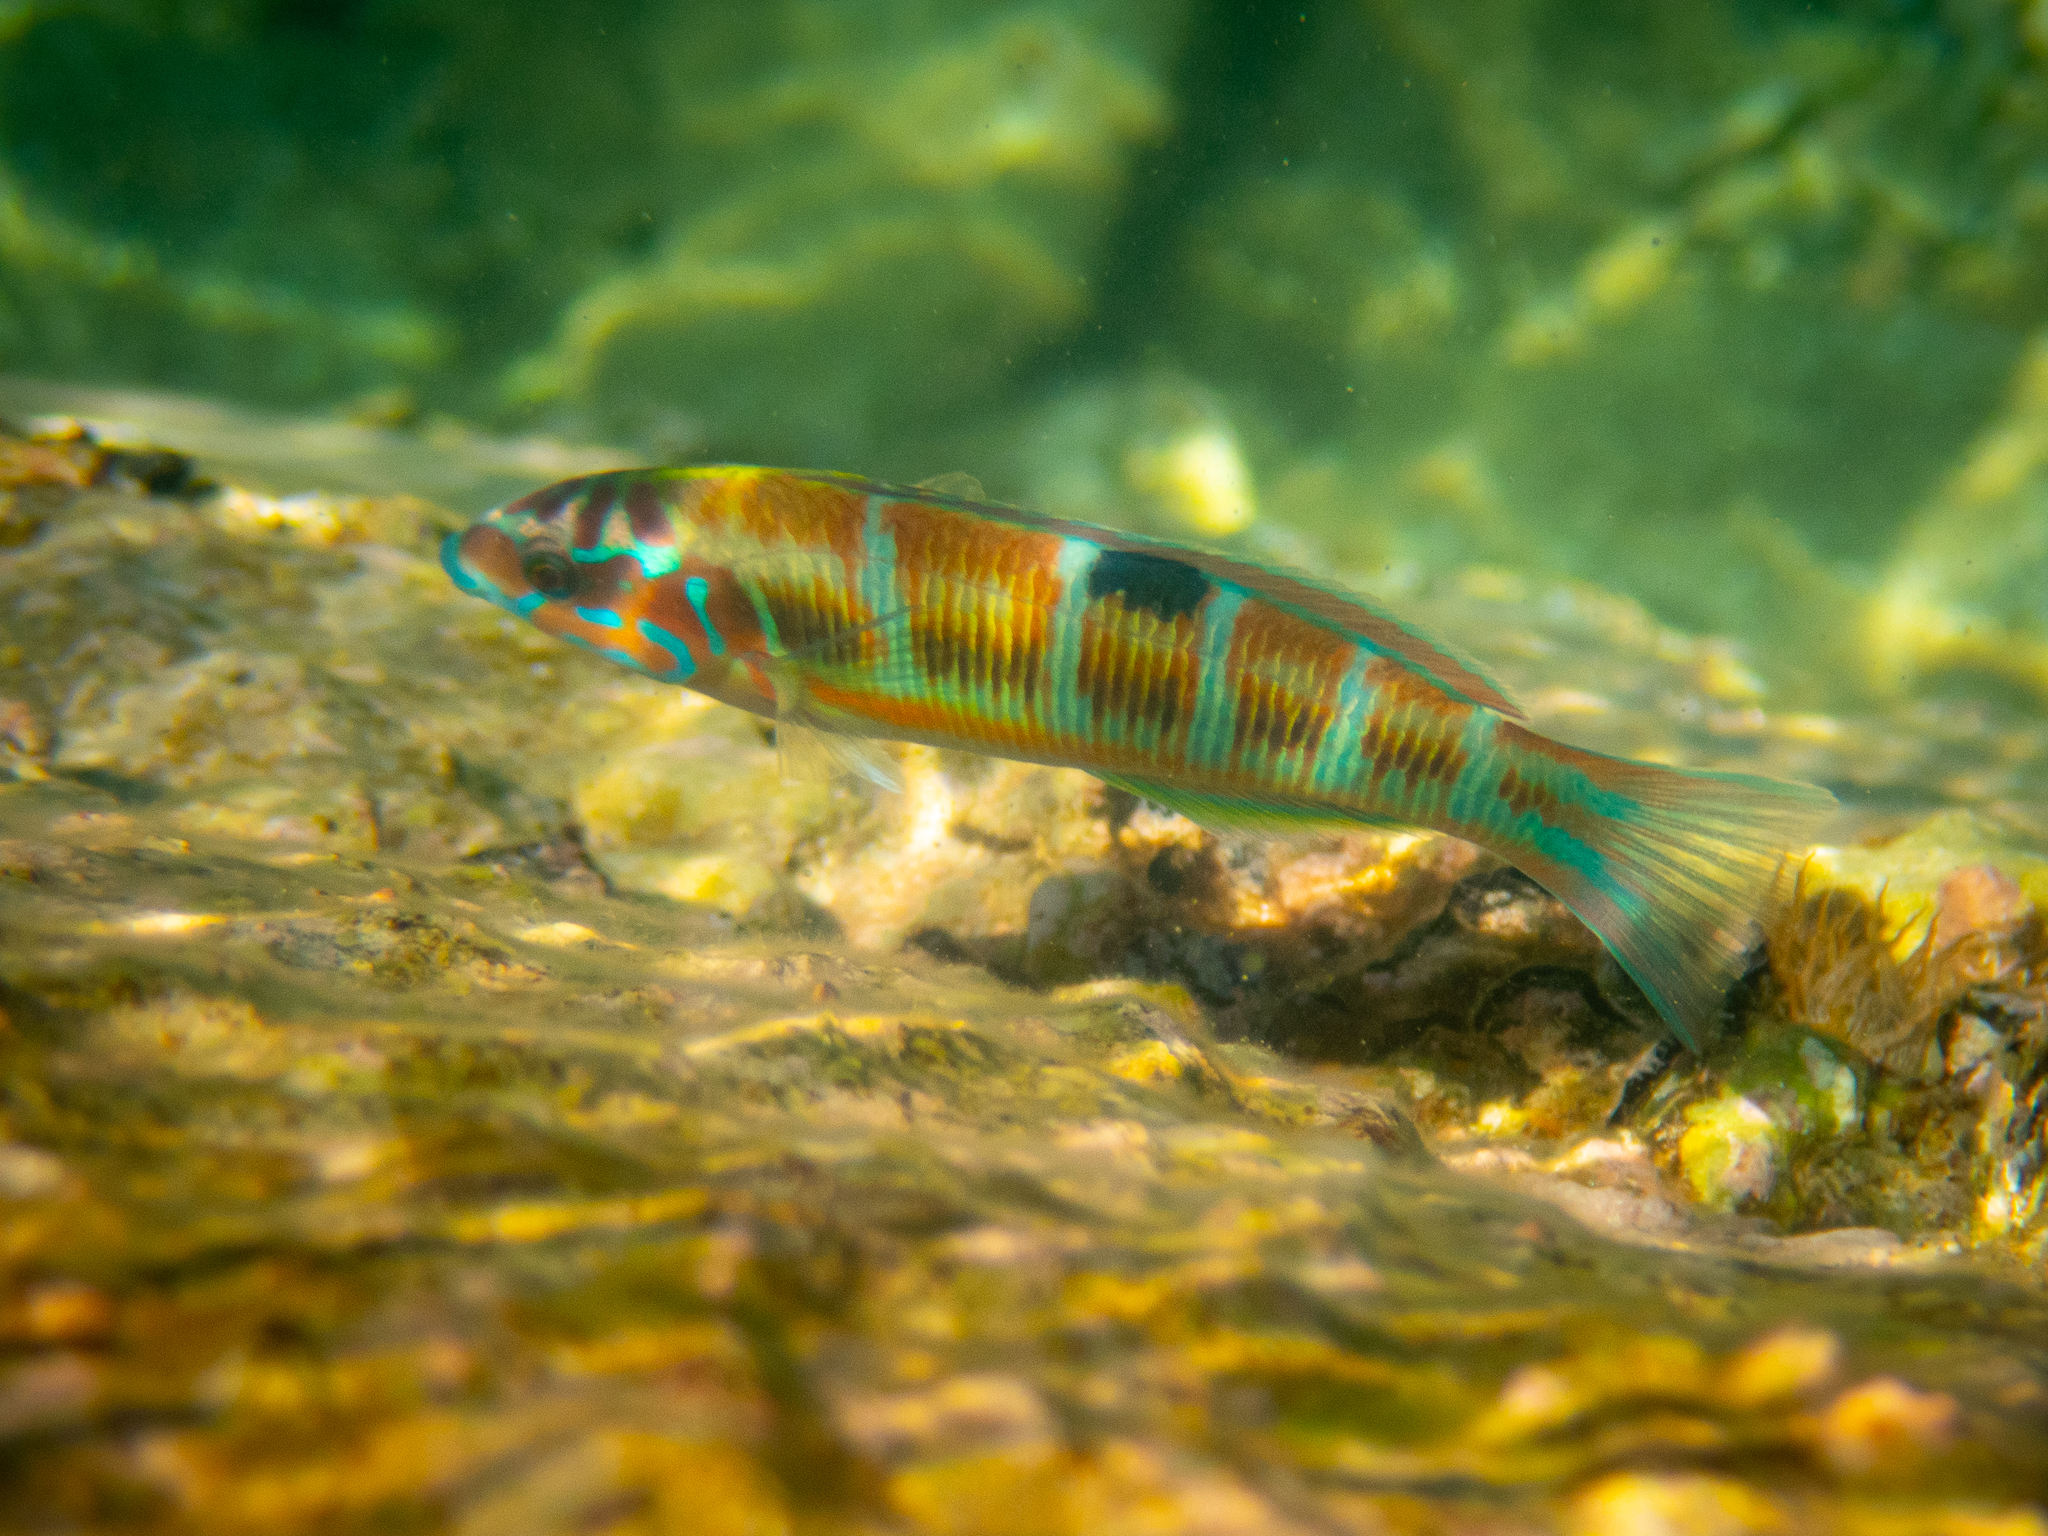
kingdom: Animalia
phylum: Chordata
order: Perciformes
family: Labridae
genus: Thalassoma
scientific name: Thalassoma pavo
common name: Ornate wrasse
